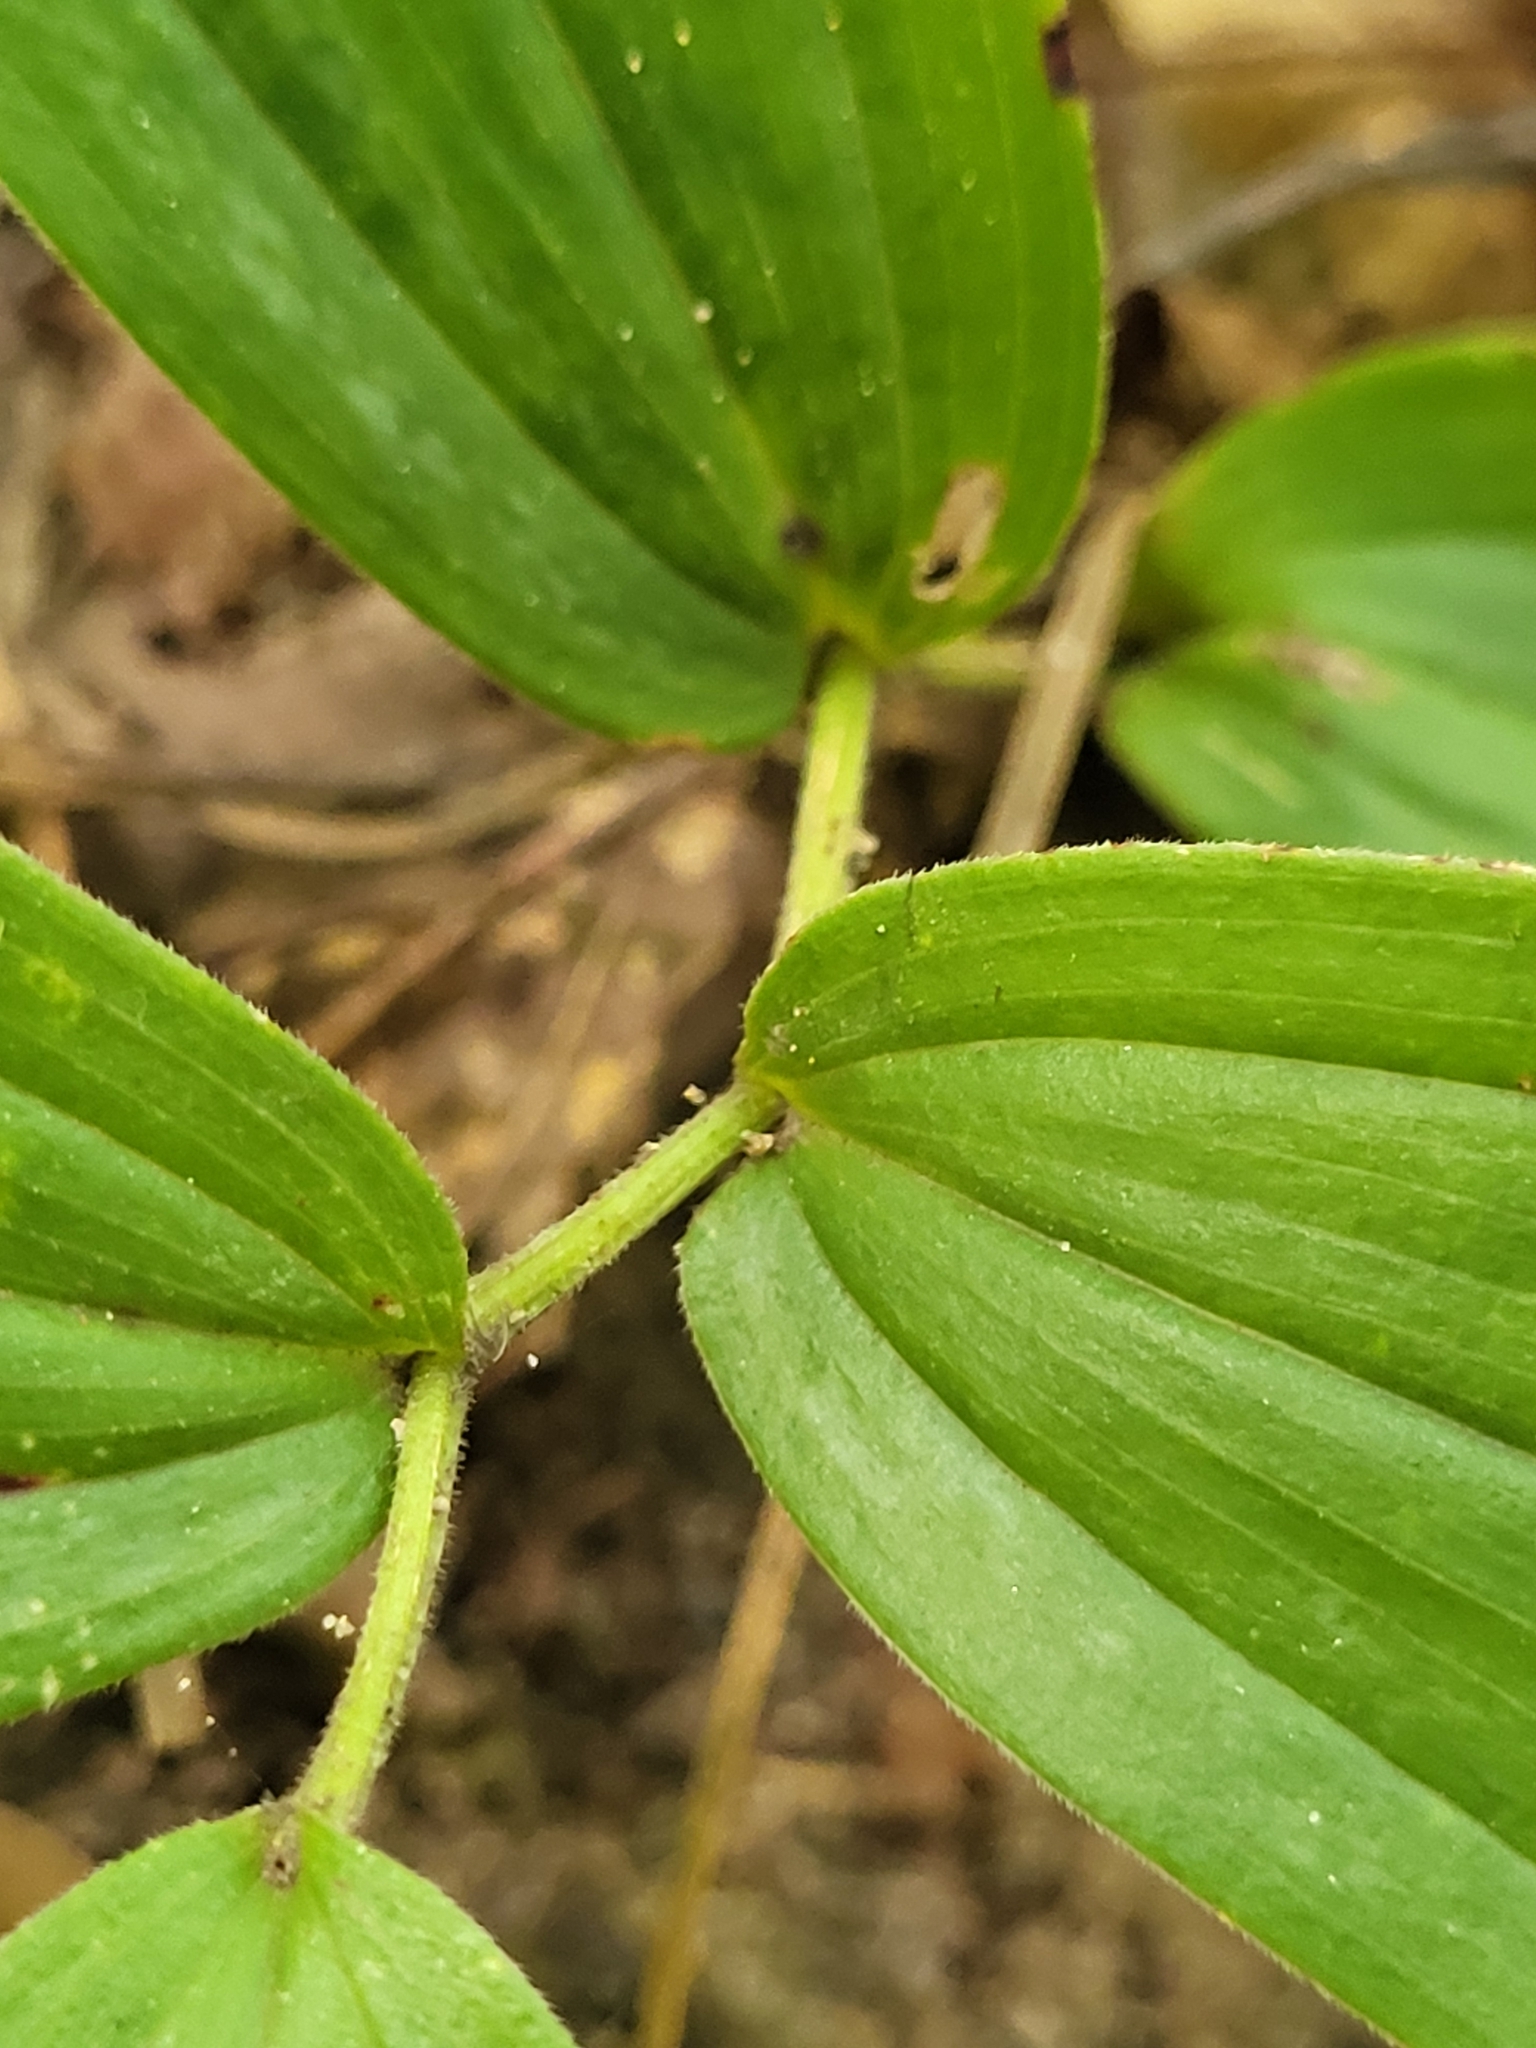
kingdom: Plantae
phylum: Tracheophyta
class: Liliopsida
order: Asparagales
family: Asparagaceae
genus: Maianthemum
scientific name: Maianthemum racemosum
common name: False spikenard
